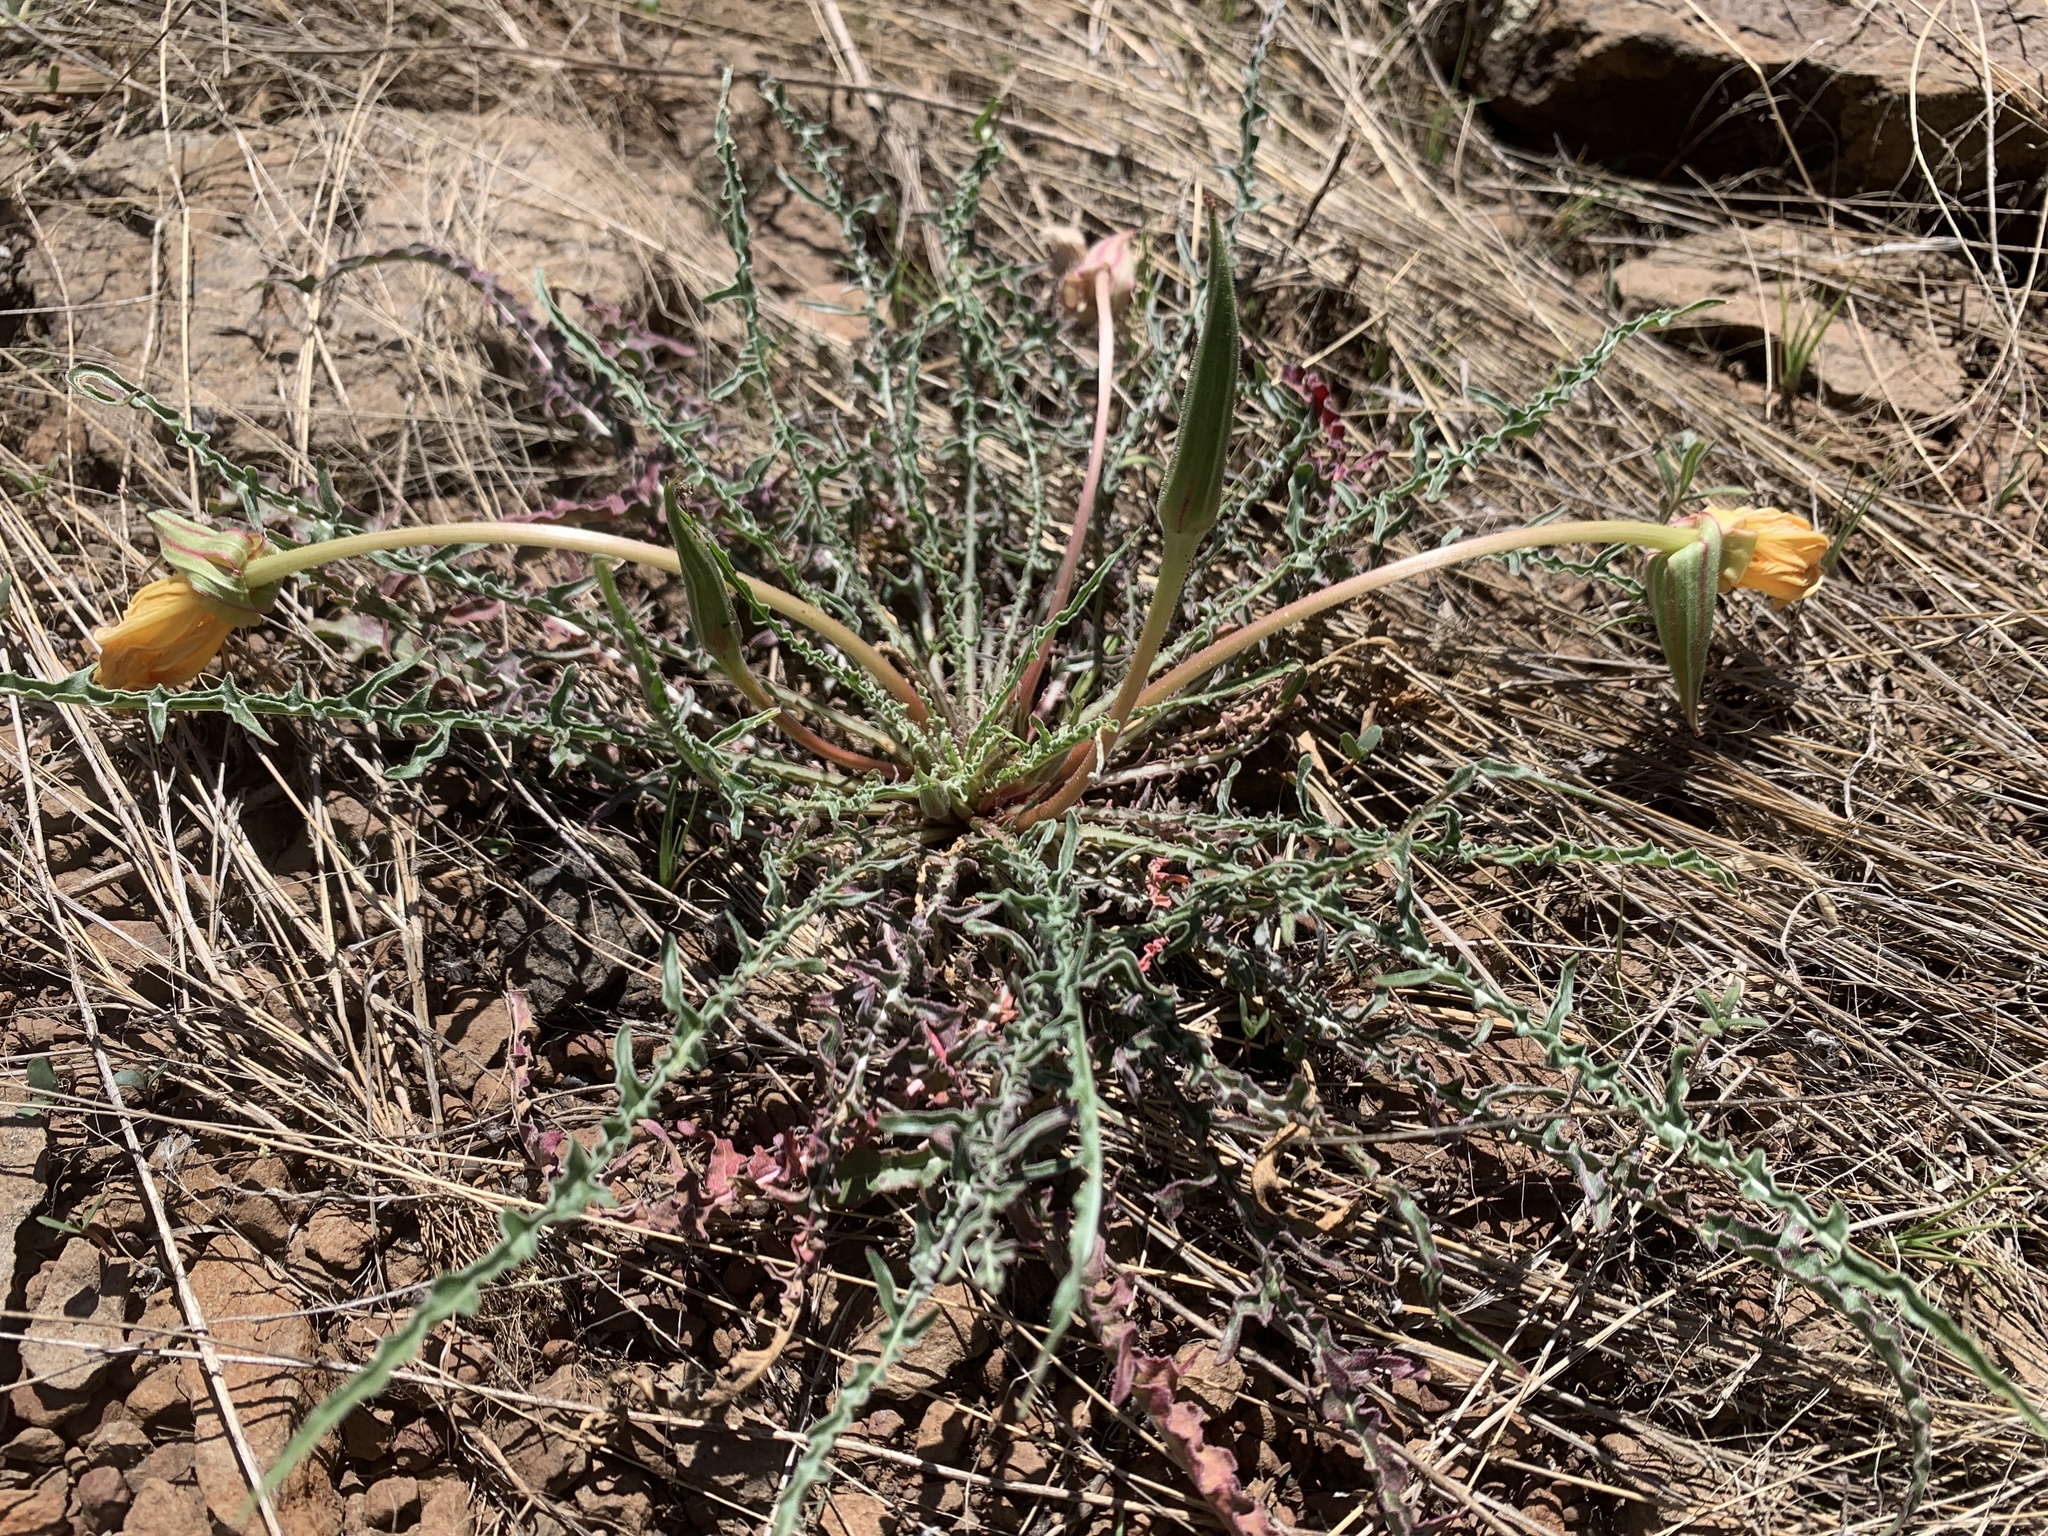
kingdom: Plantae
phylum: Tracheophyta
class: Magnoliopsida
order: Myrtales
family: Onagraceae
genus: Oenothera
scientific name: Oenothera flava
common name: Long-tubed evening-primrose
